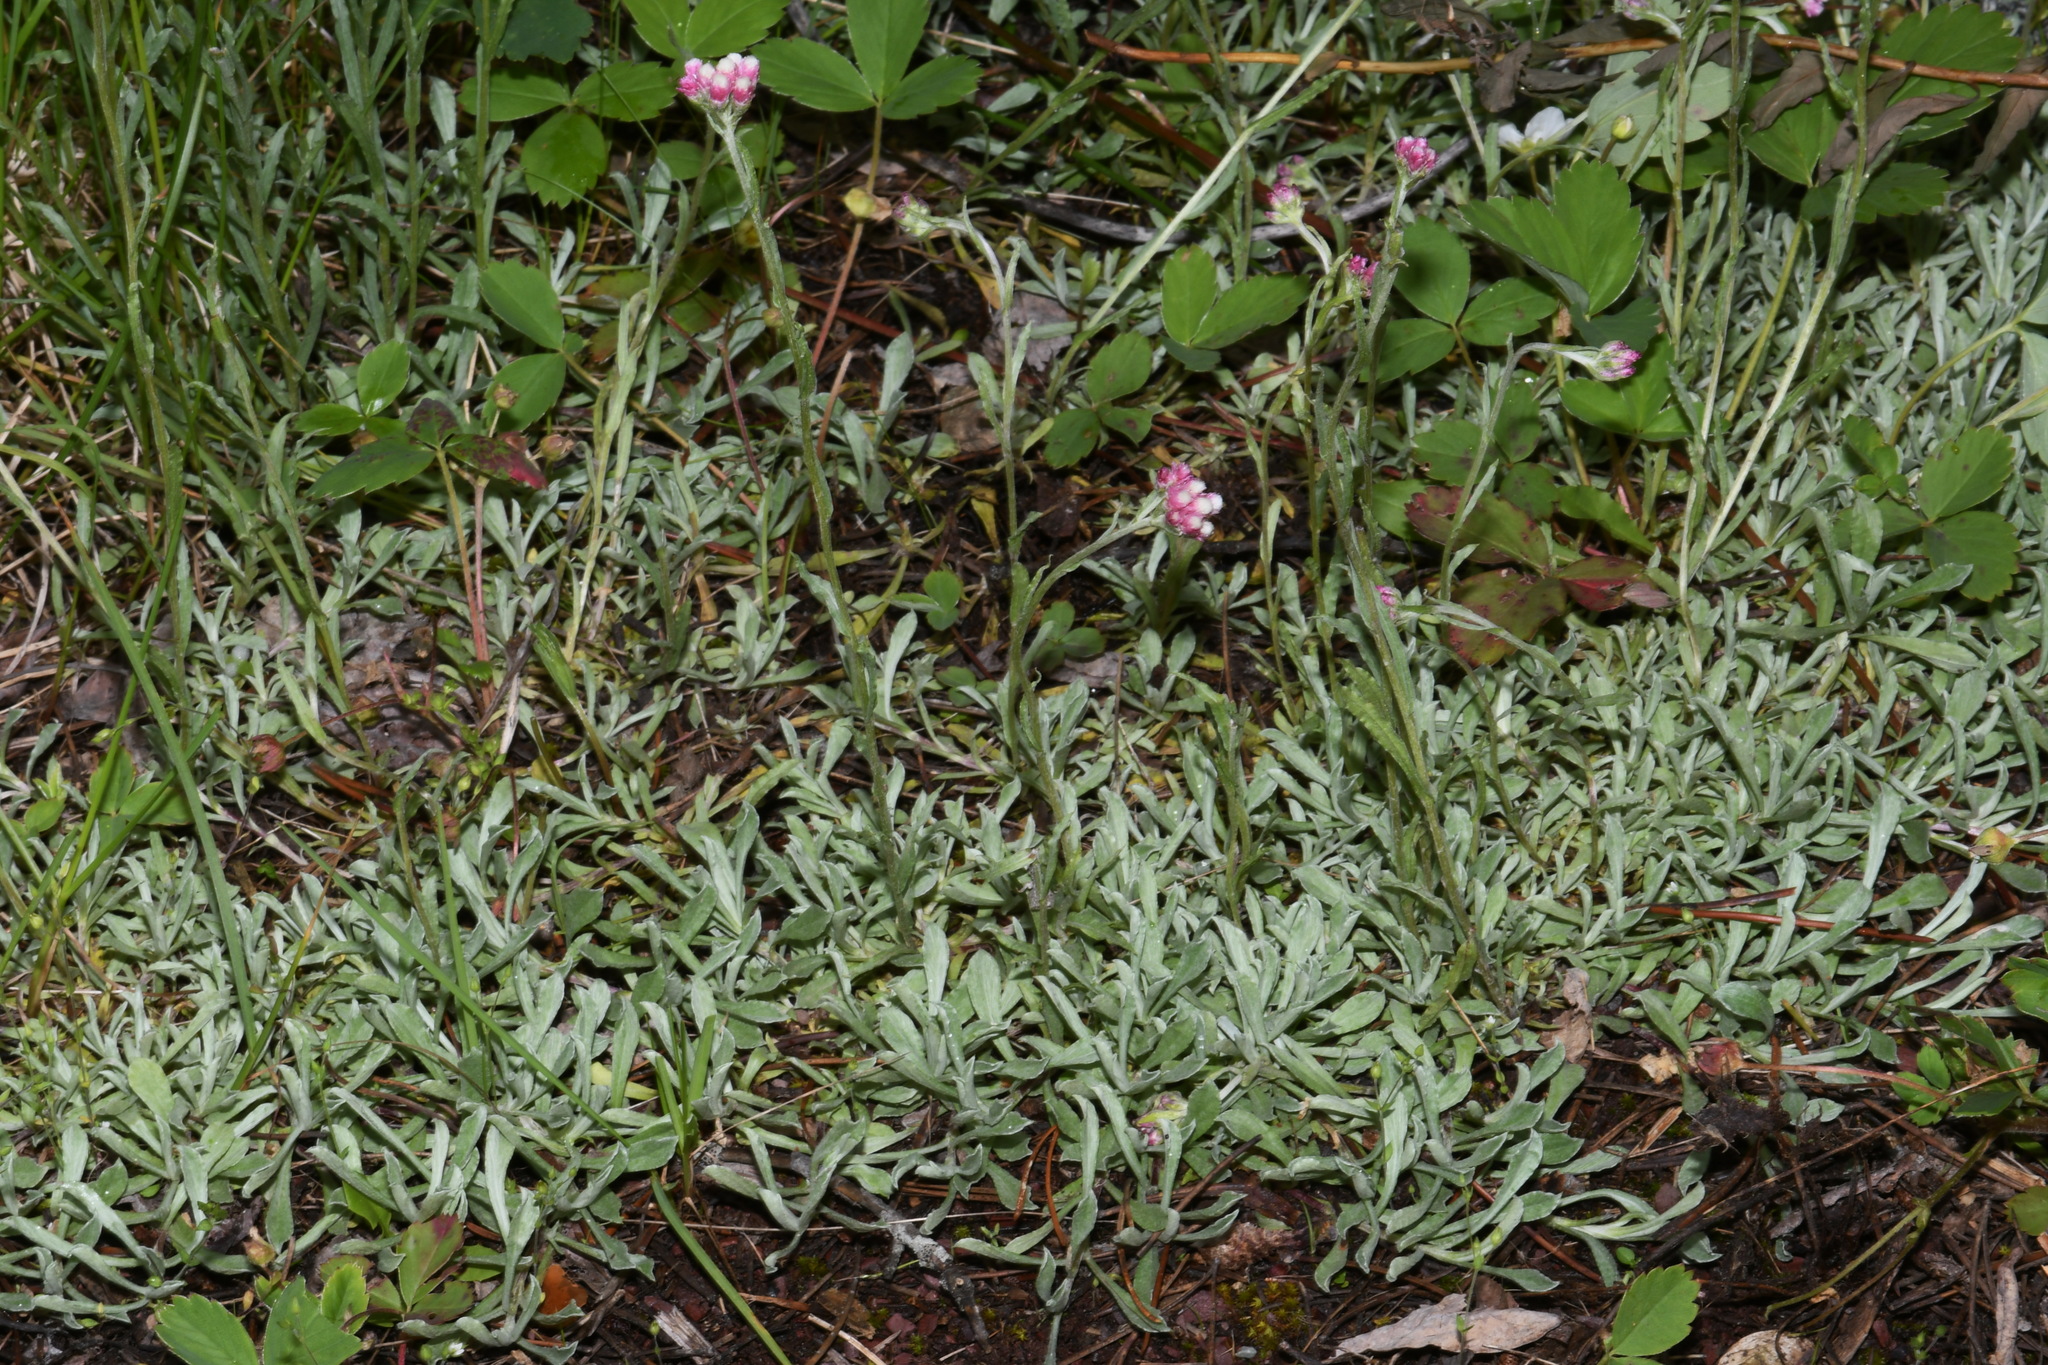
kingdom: Plantae
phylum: Tracheophyta
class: Magnoliopsida
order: Asterales
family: Asteraceae
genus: Antennaria
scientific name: Antennaria rosea
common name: Rosy pussytoes
